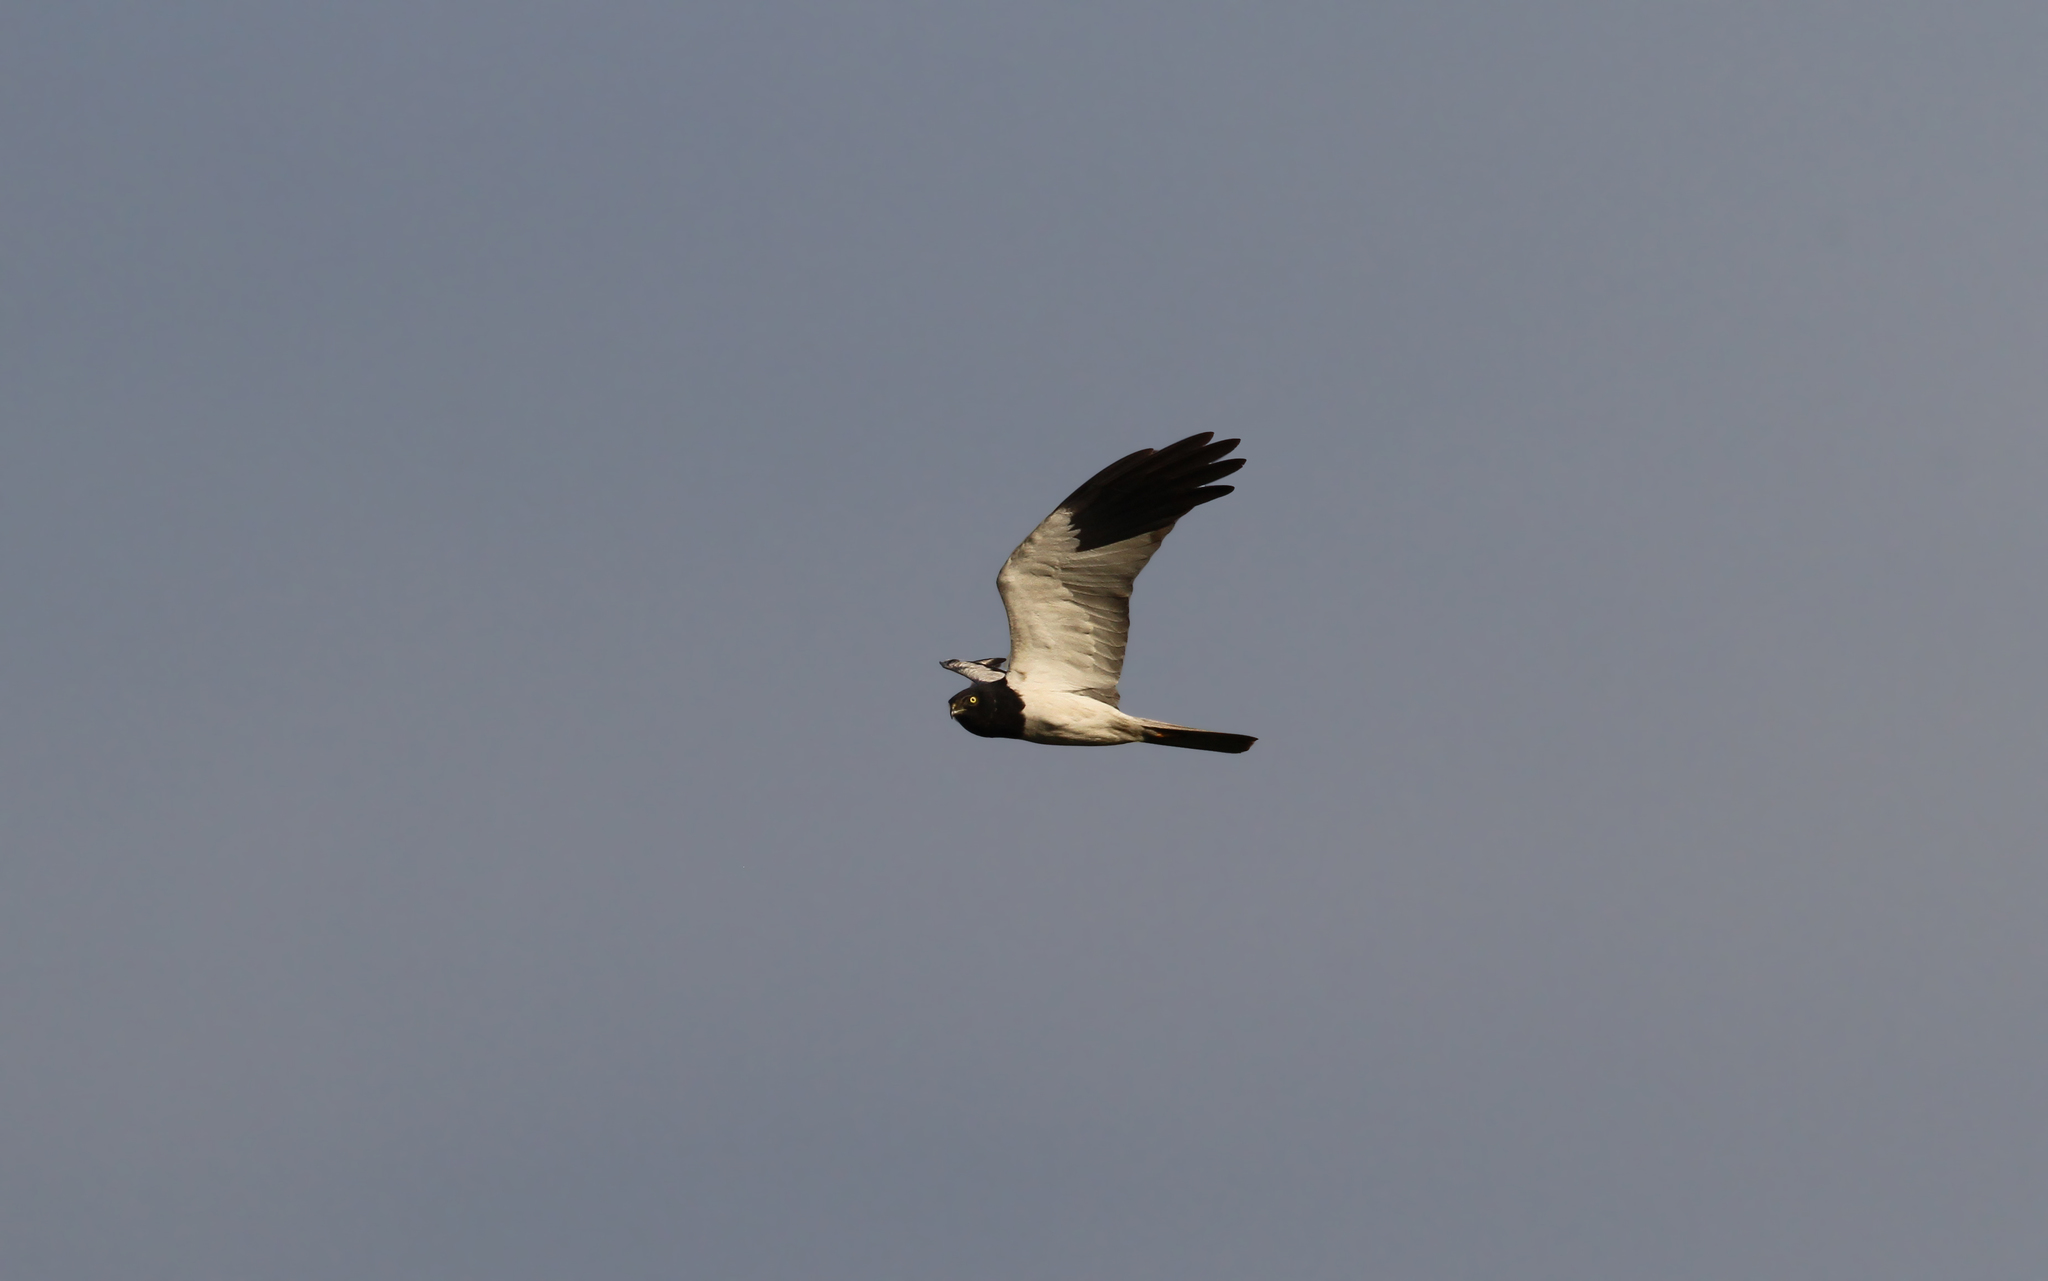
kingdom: Animalia
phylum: Chordata
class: Aves
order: Accipitriformes
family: Accipitridae
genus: Circus
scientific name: Circus melanoleucos
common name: Pied harrier
